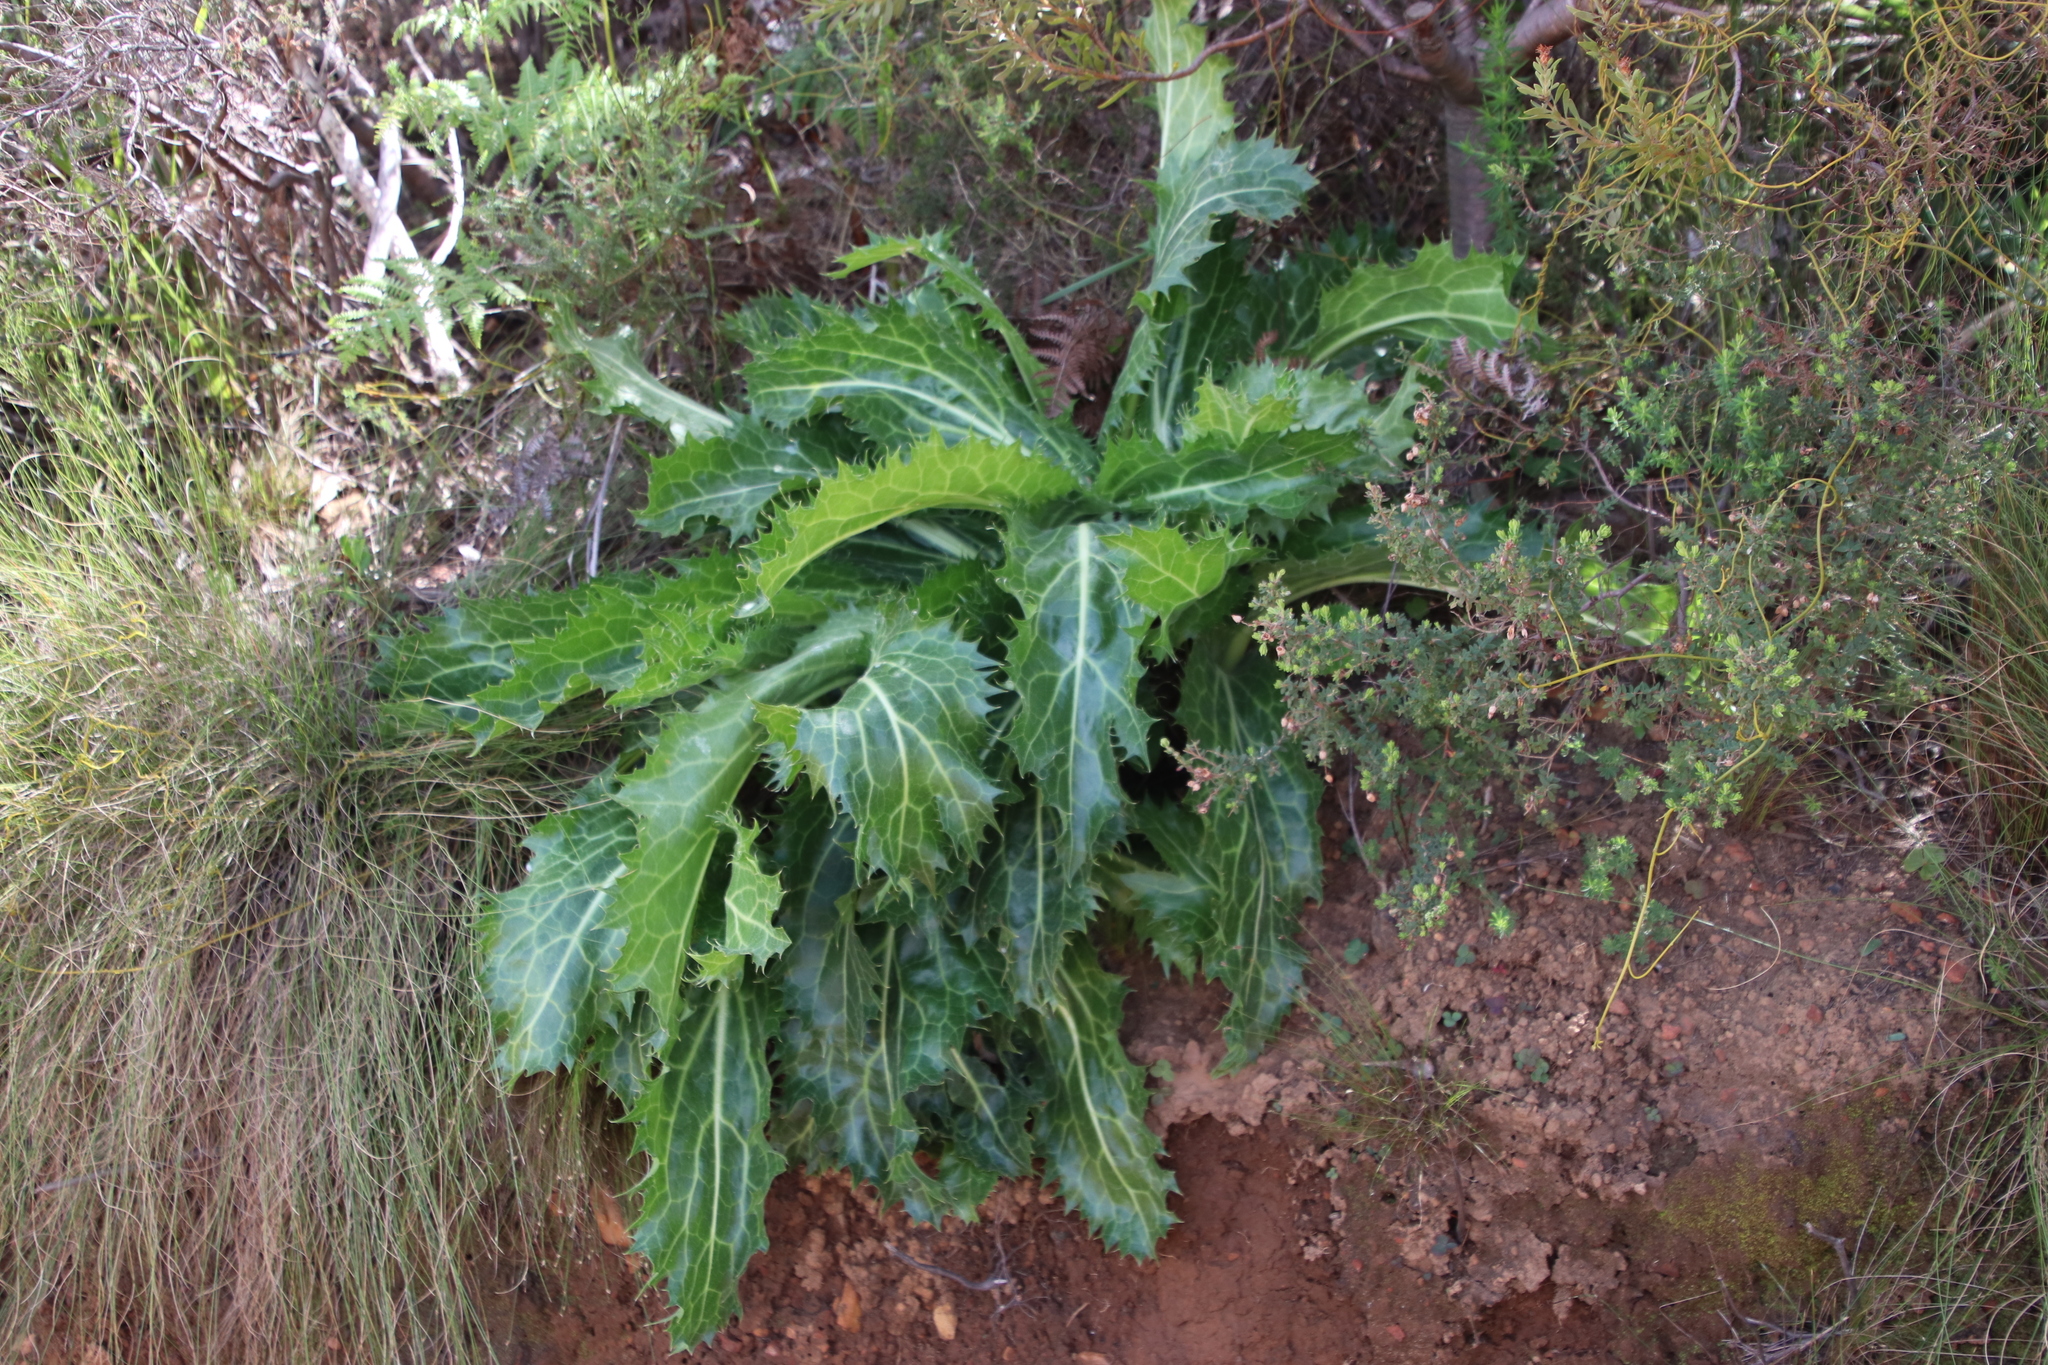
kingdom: Plantae
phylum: Tracheophyta
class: Magnoliopsida
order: Apiales
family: Apiaceae
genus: Lichtensteinia
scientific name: Lichtensteinia lacera
